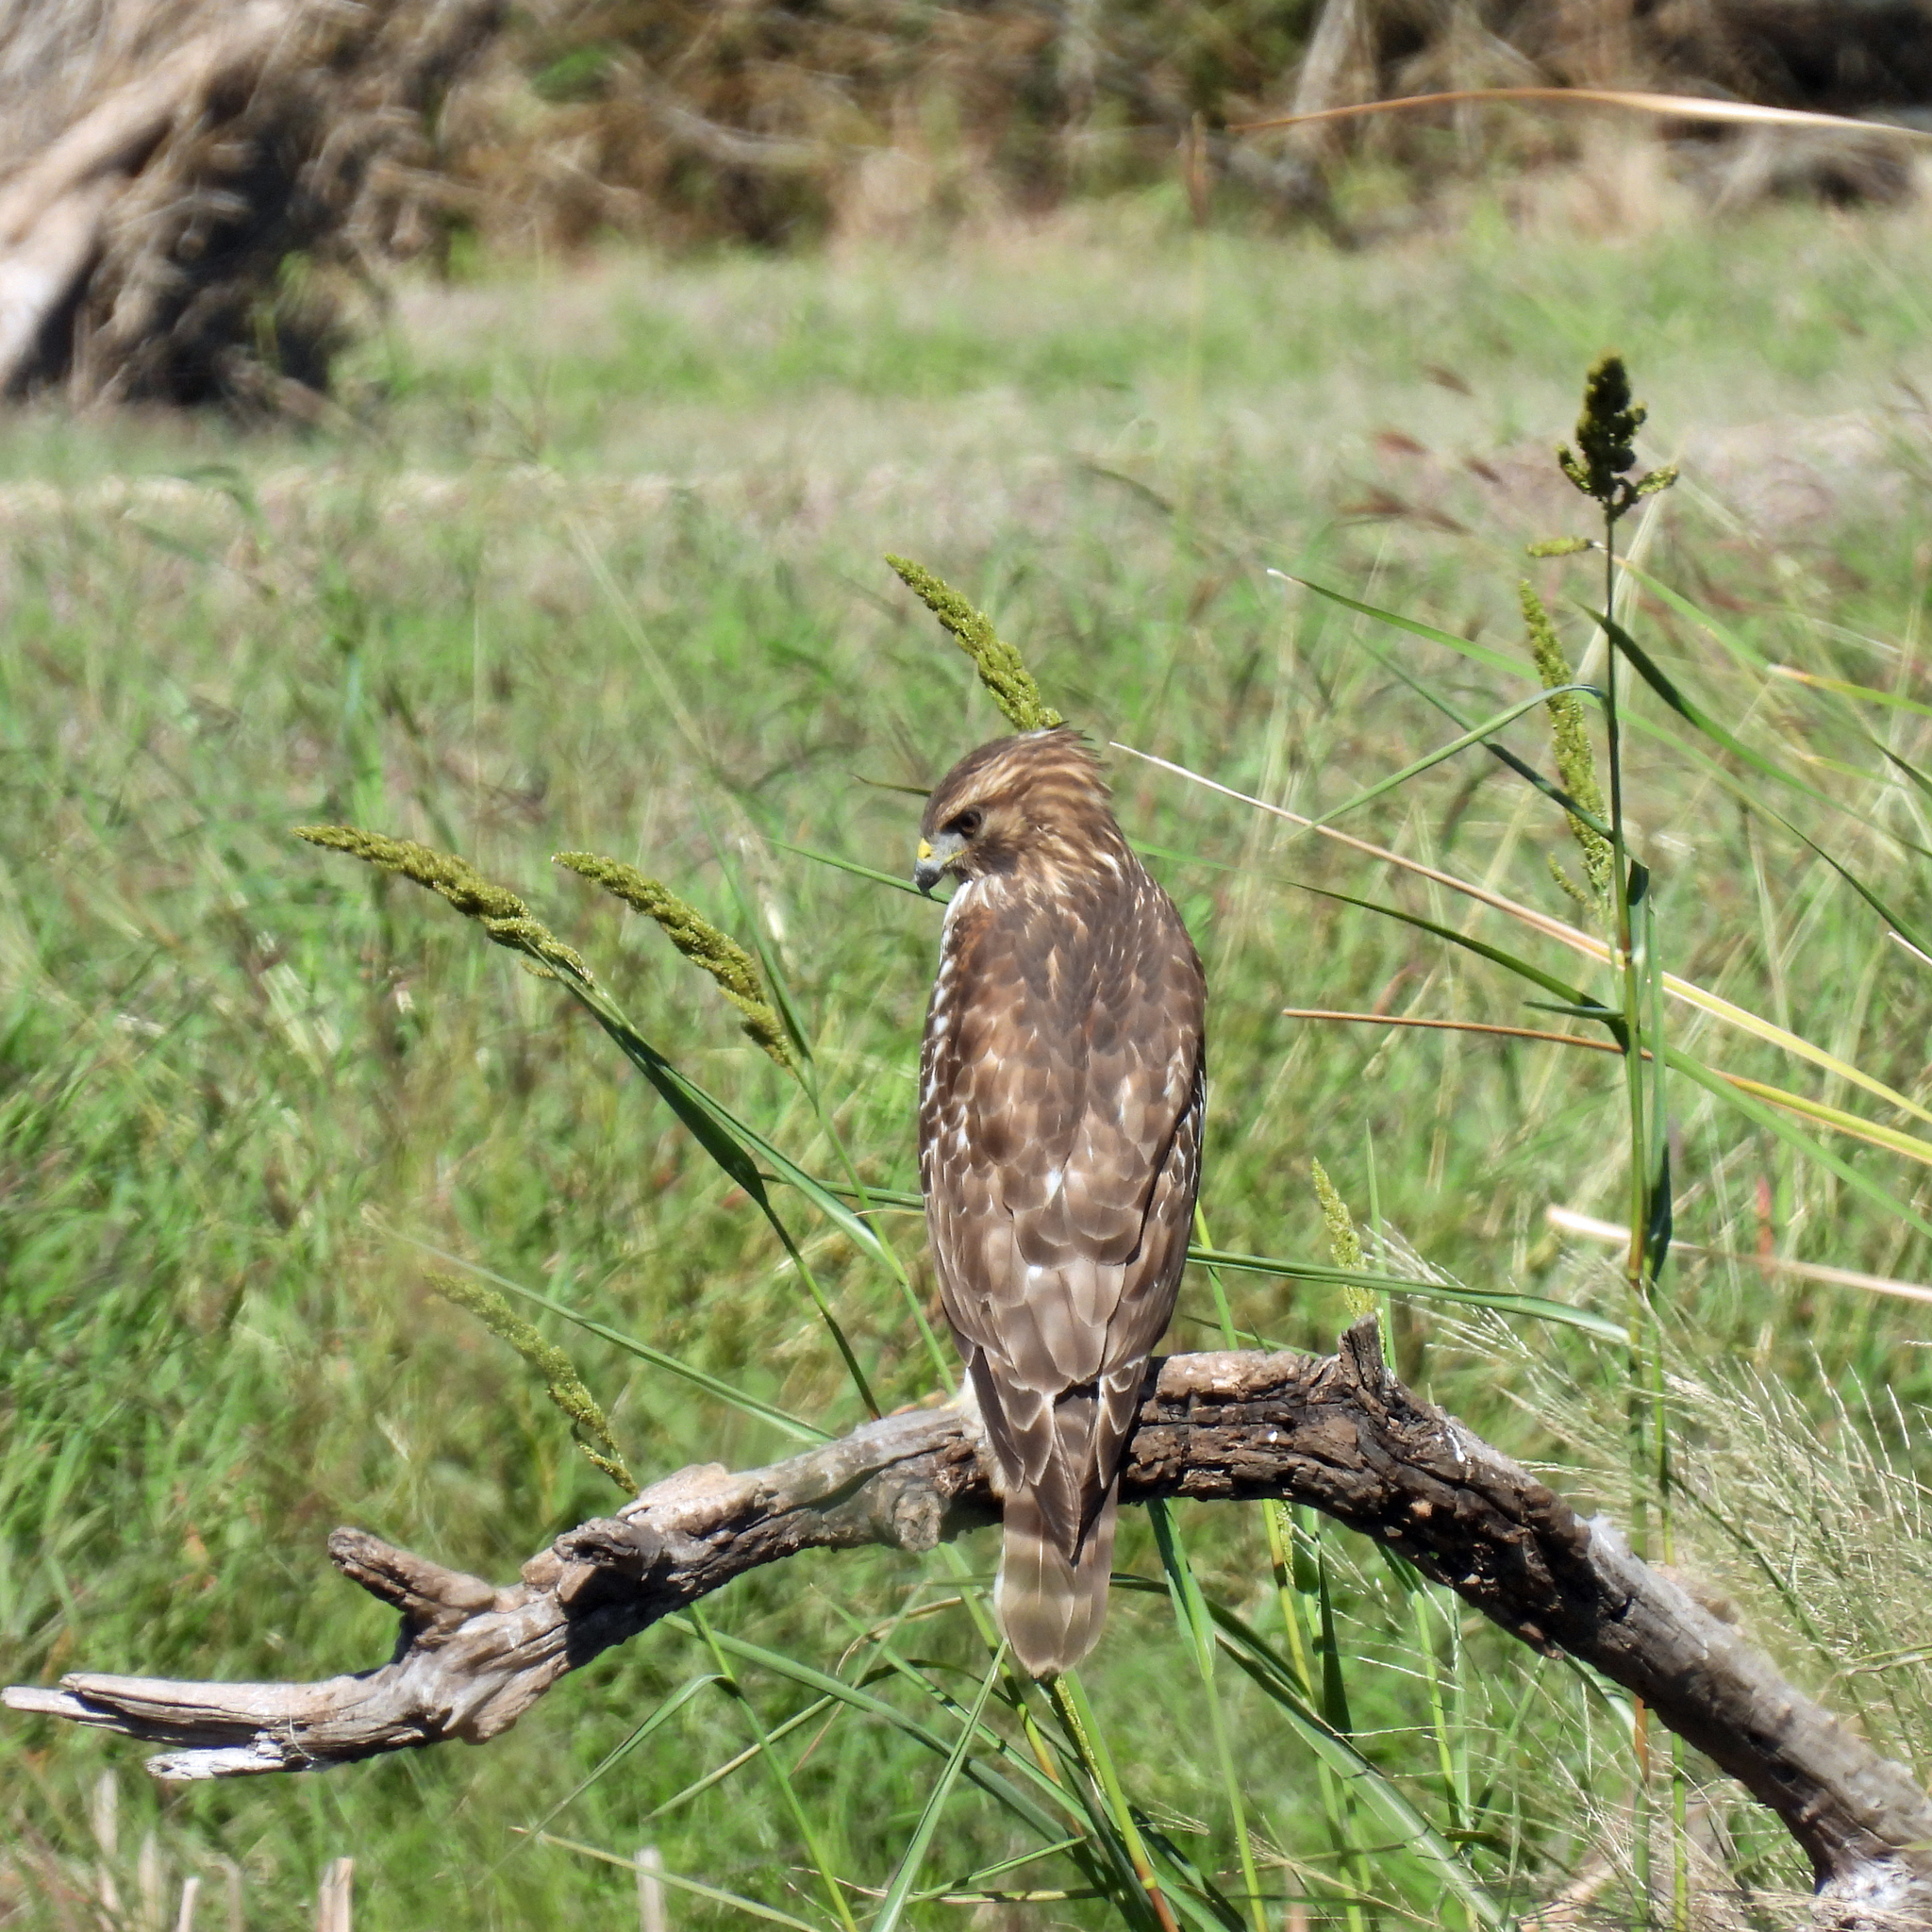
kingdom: Animalia
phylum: Chordata
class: Aves
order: Accipitriformes
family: Accipitridae
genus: Buteo
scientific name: Buteo lineatus
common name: Red-shouldered hawk
